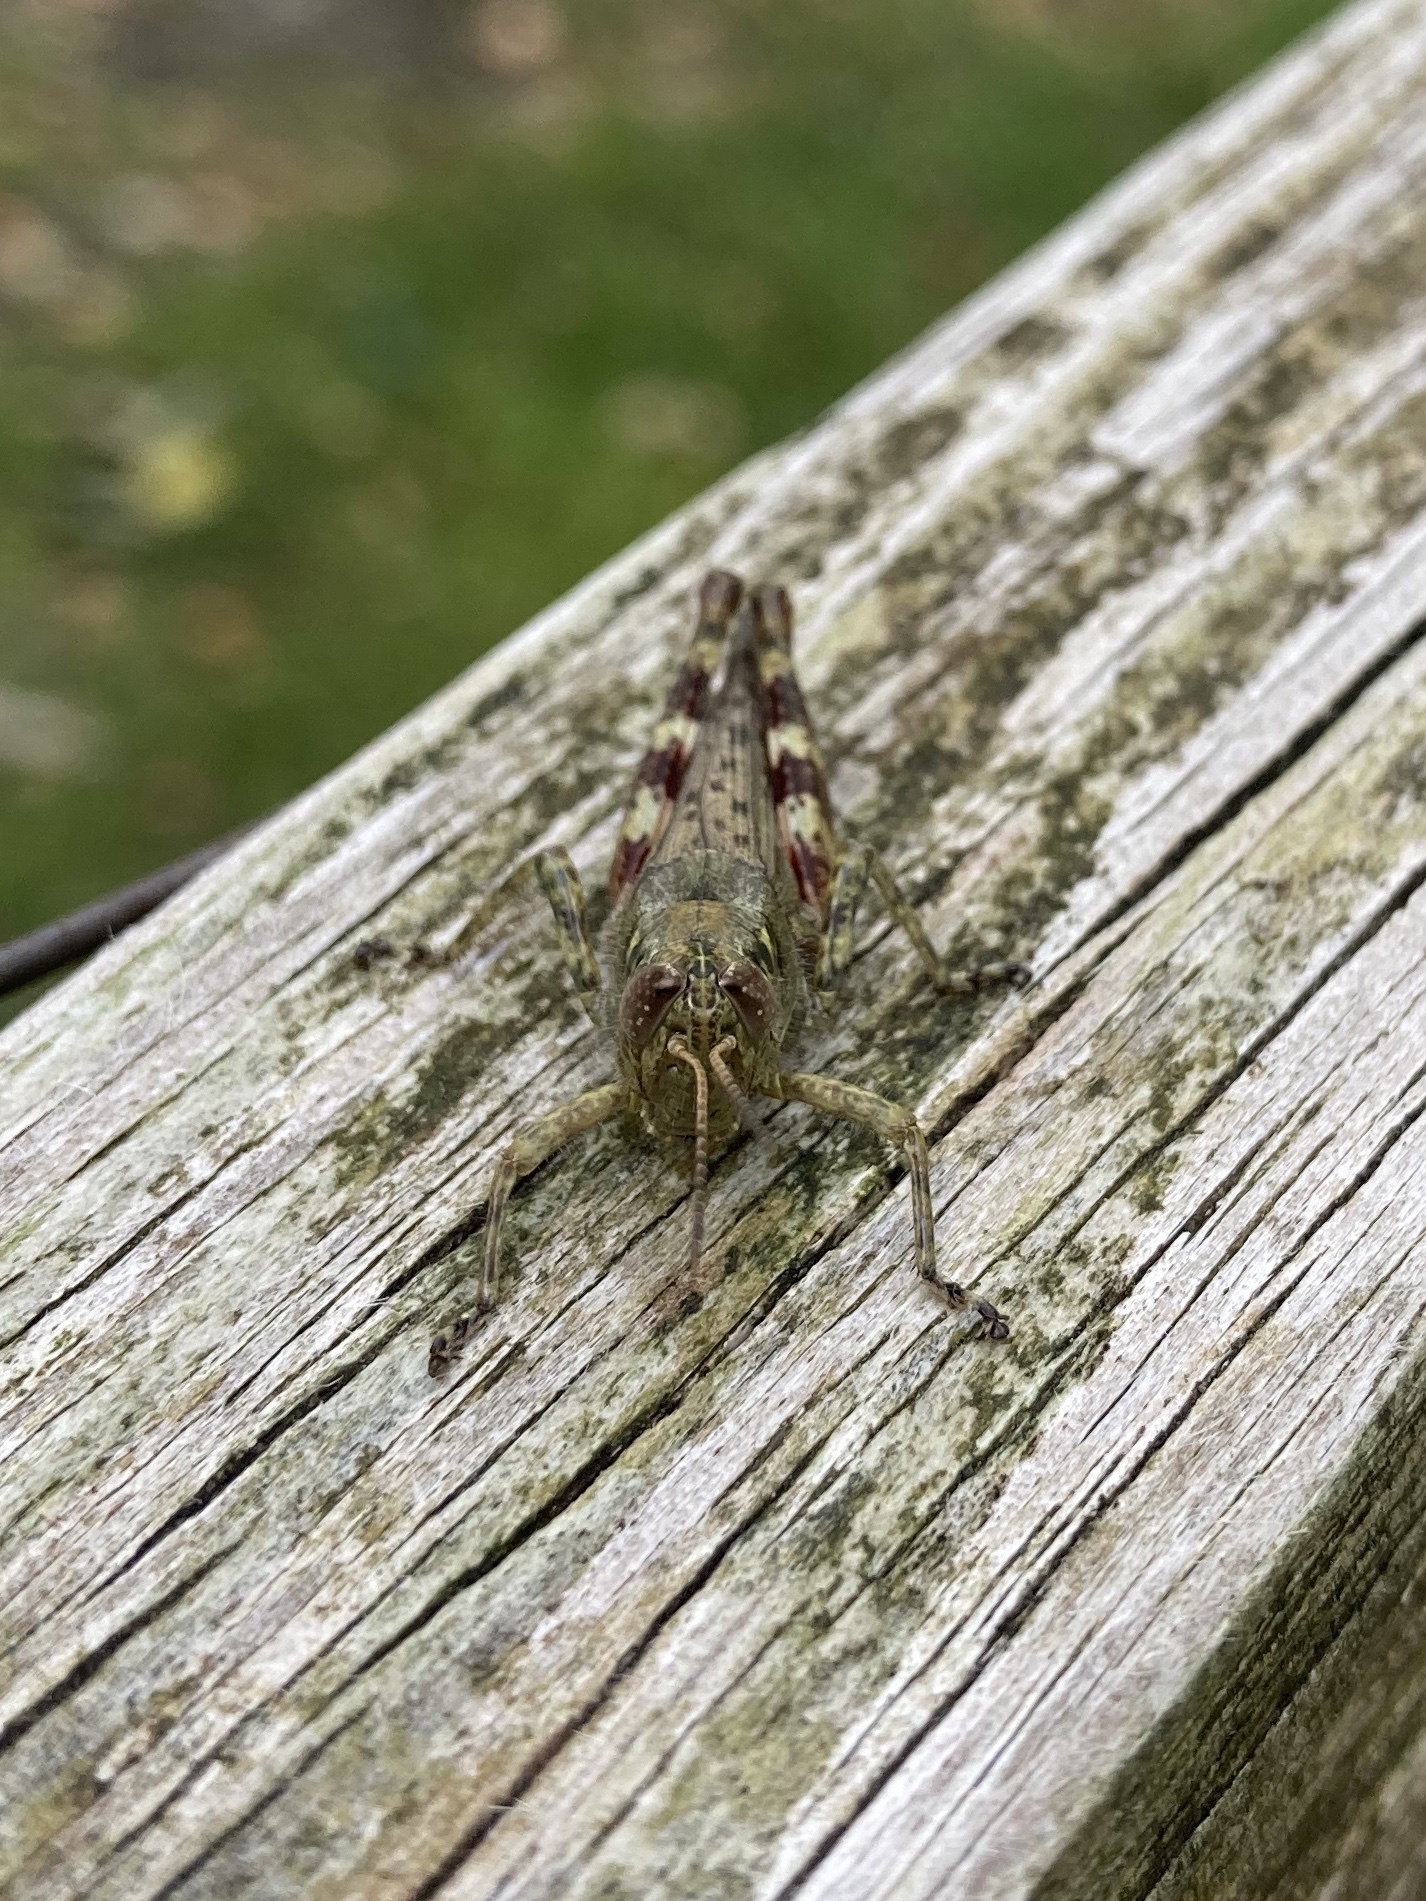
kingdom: Animalia
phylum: Arthropoda
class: Insecta
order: Orthoptera
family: Acrididae
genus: Melanoplus
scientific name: Melanoplus punctulatus
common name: Pine-tree spur-throat grasshopper
